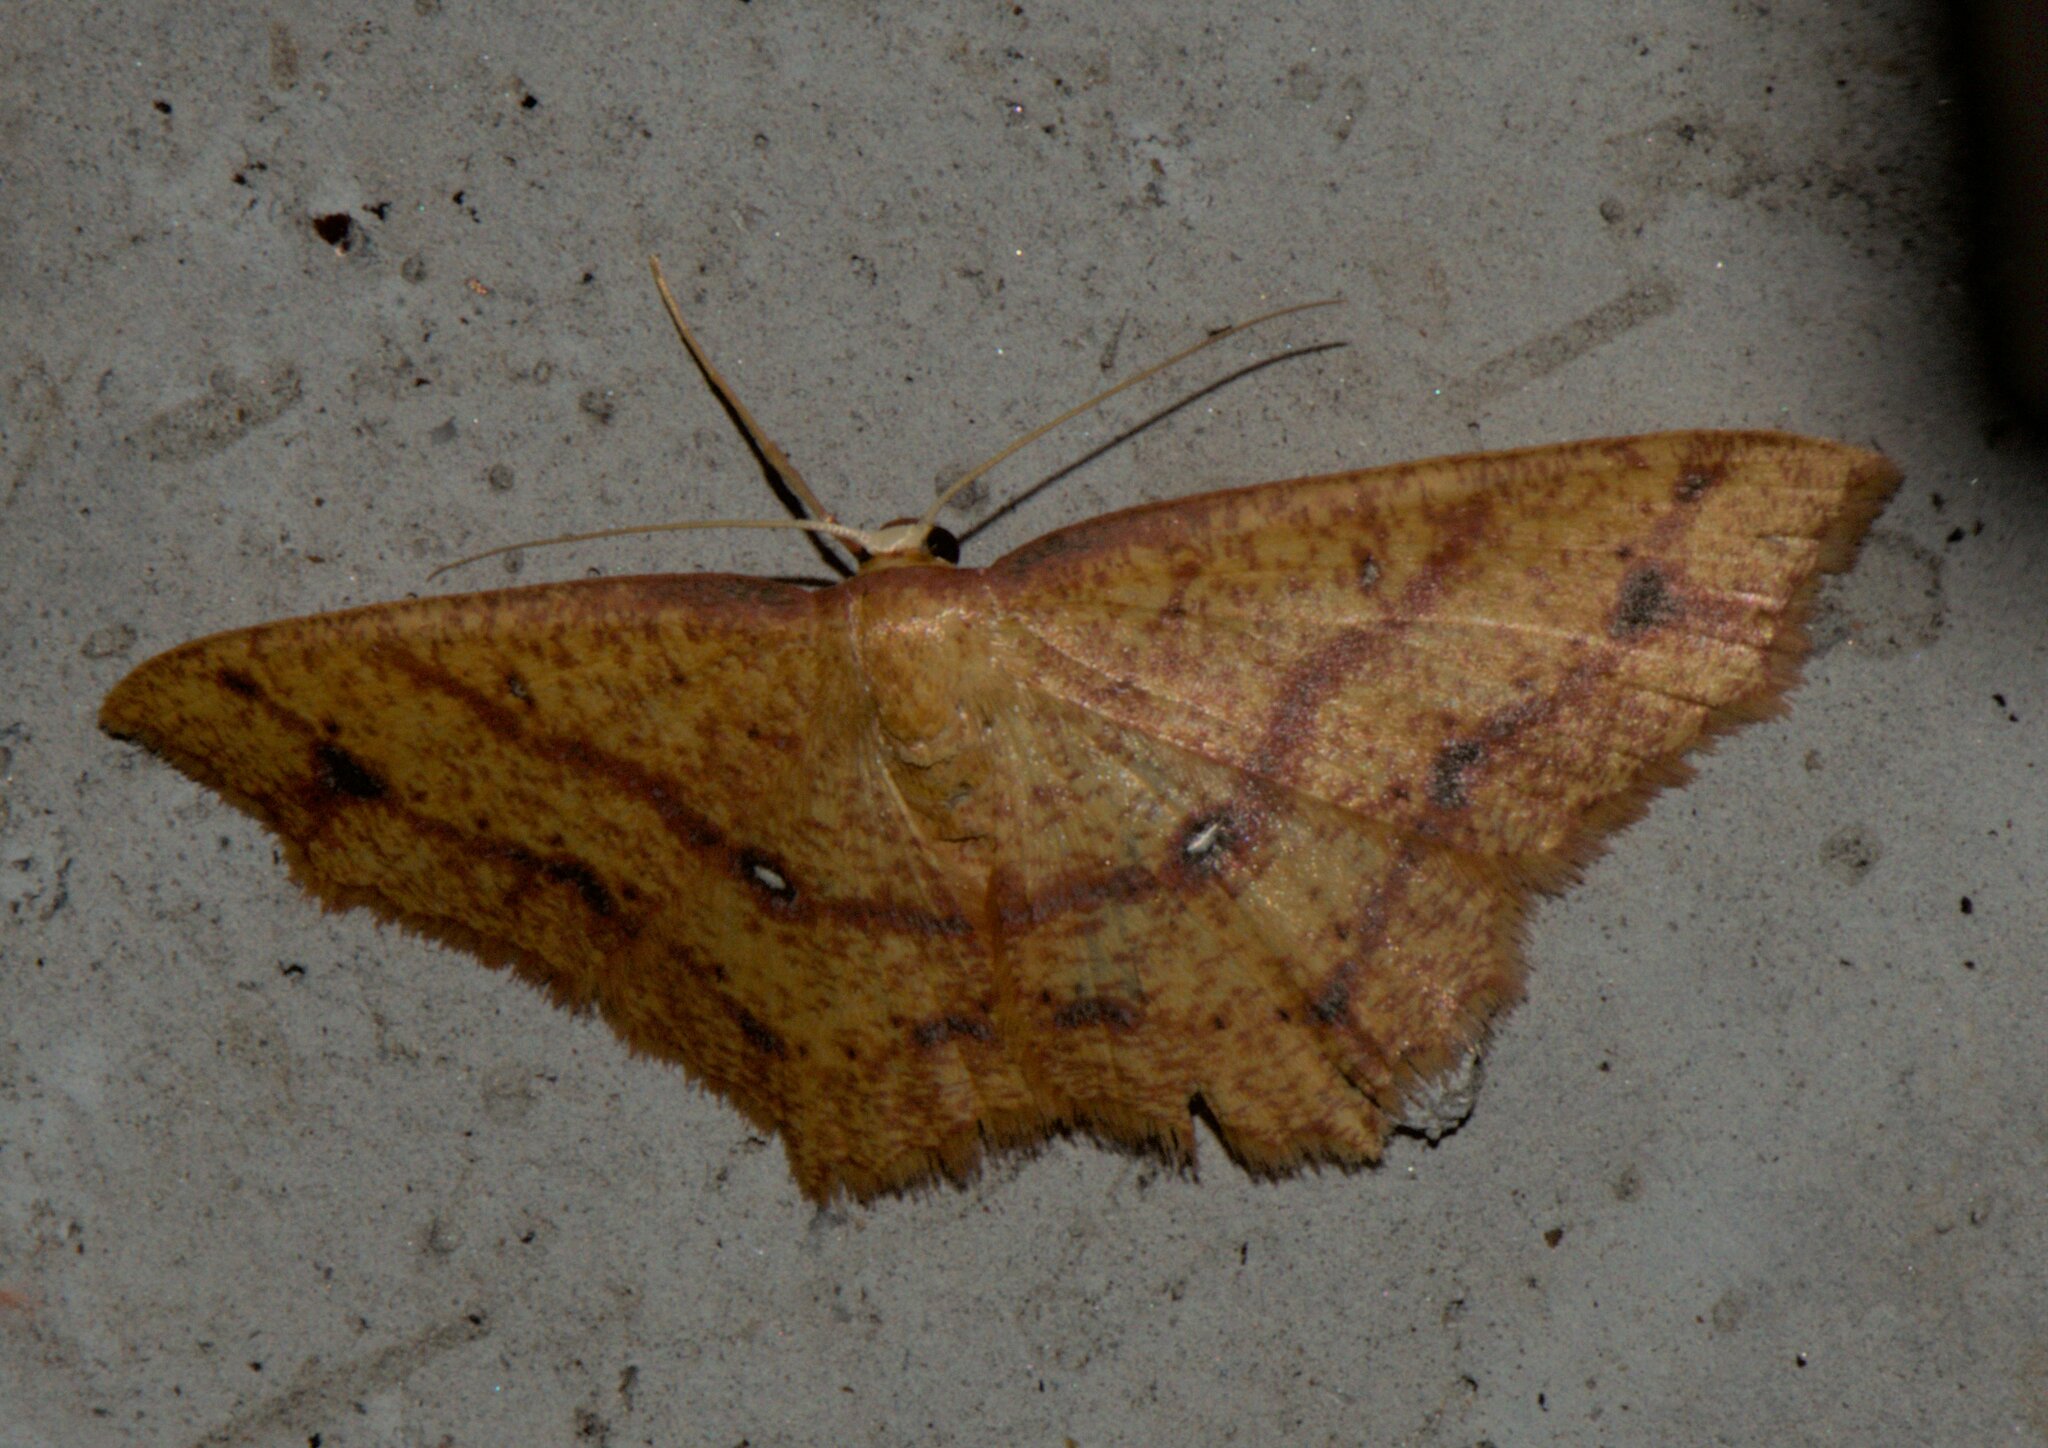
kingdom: Animalia
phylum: Arthropoda
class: Insecta
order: Lepidoptera
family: Geometridae
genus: Synegiodes
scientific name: Synegiodes hyriaria
